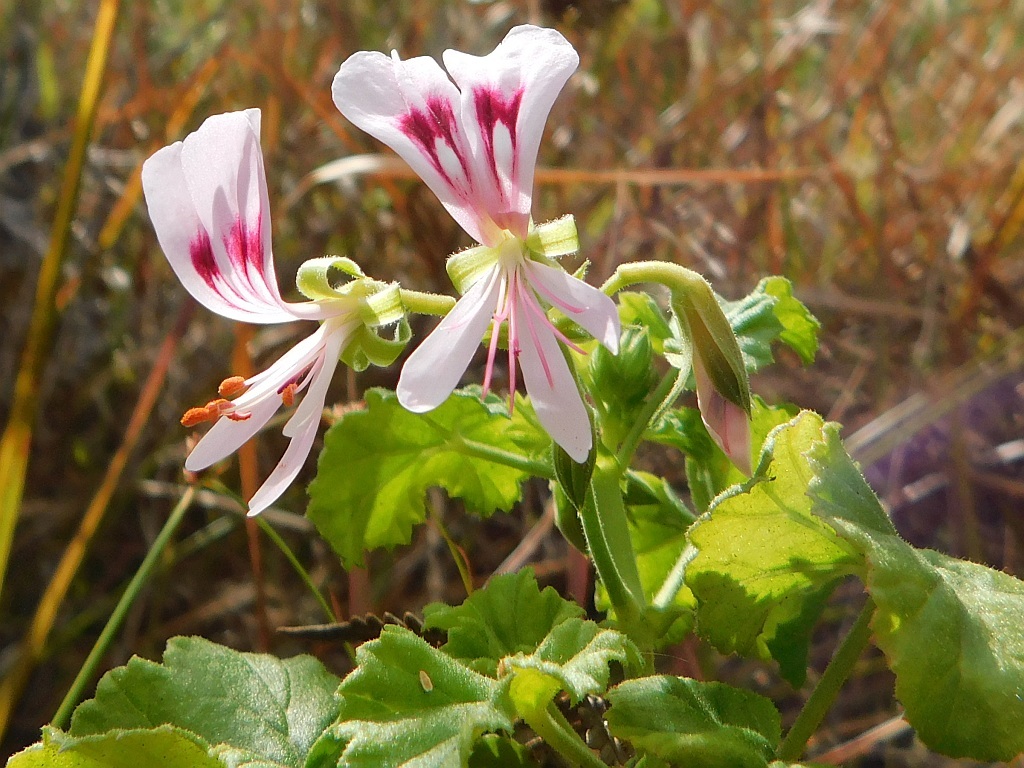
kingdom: Plantae
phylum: Tracheophyta
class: Magnoliopsida
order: Geraniales
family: Geraniaceae
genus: Pelargonium
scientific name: Pelargonium greytonense
